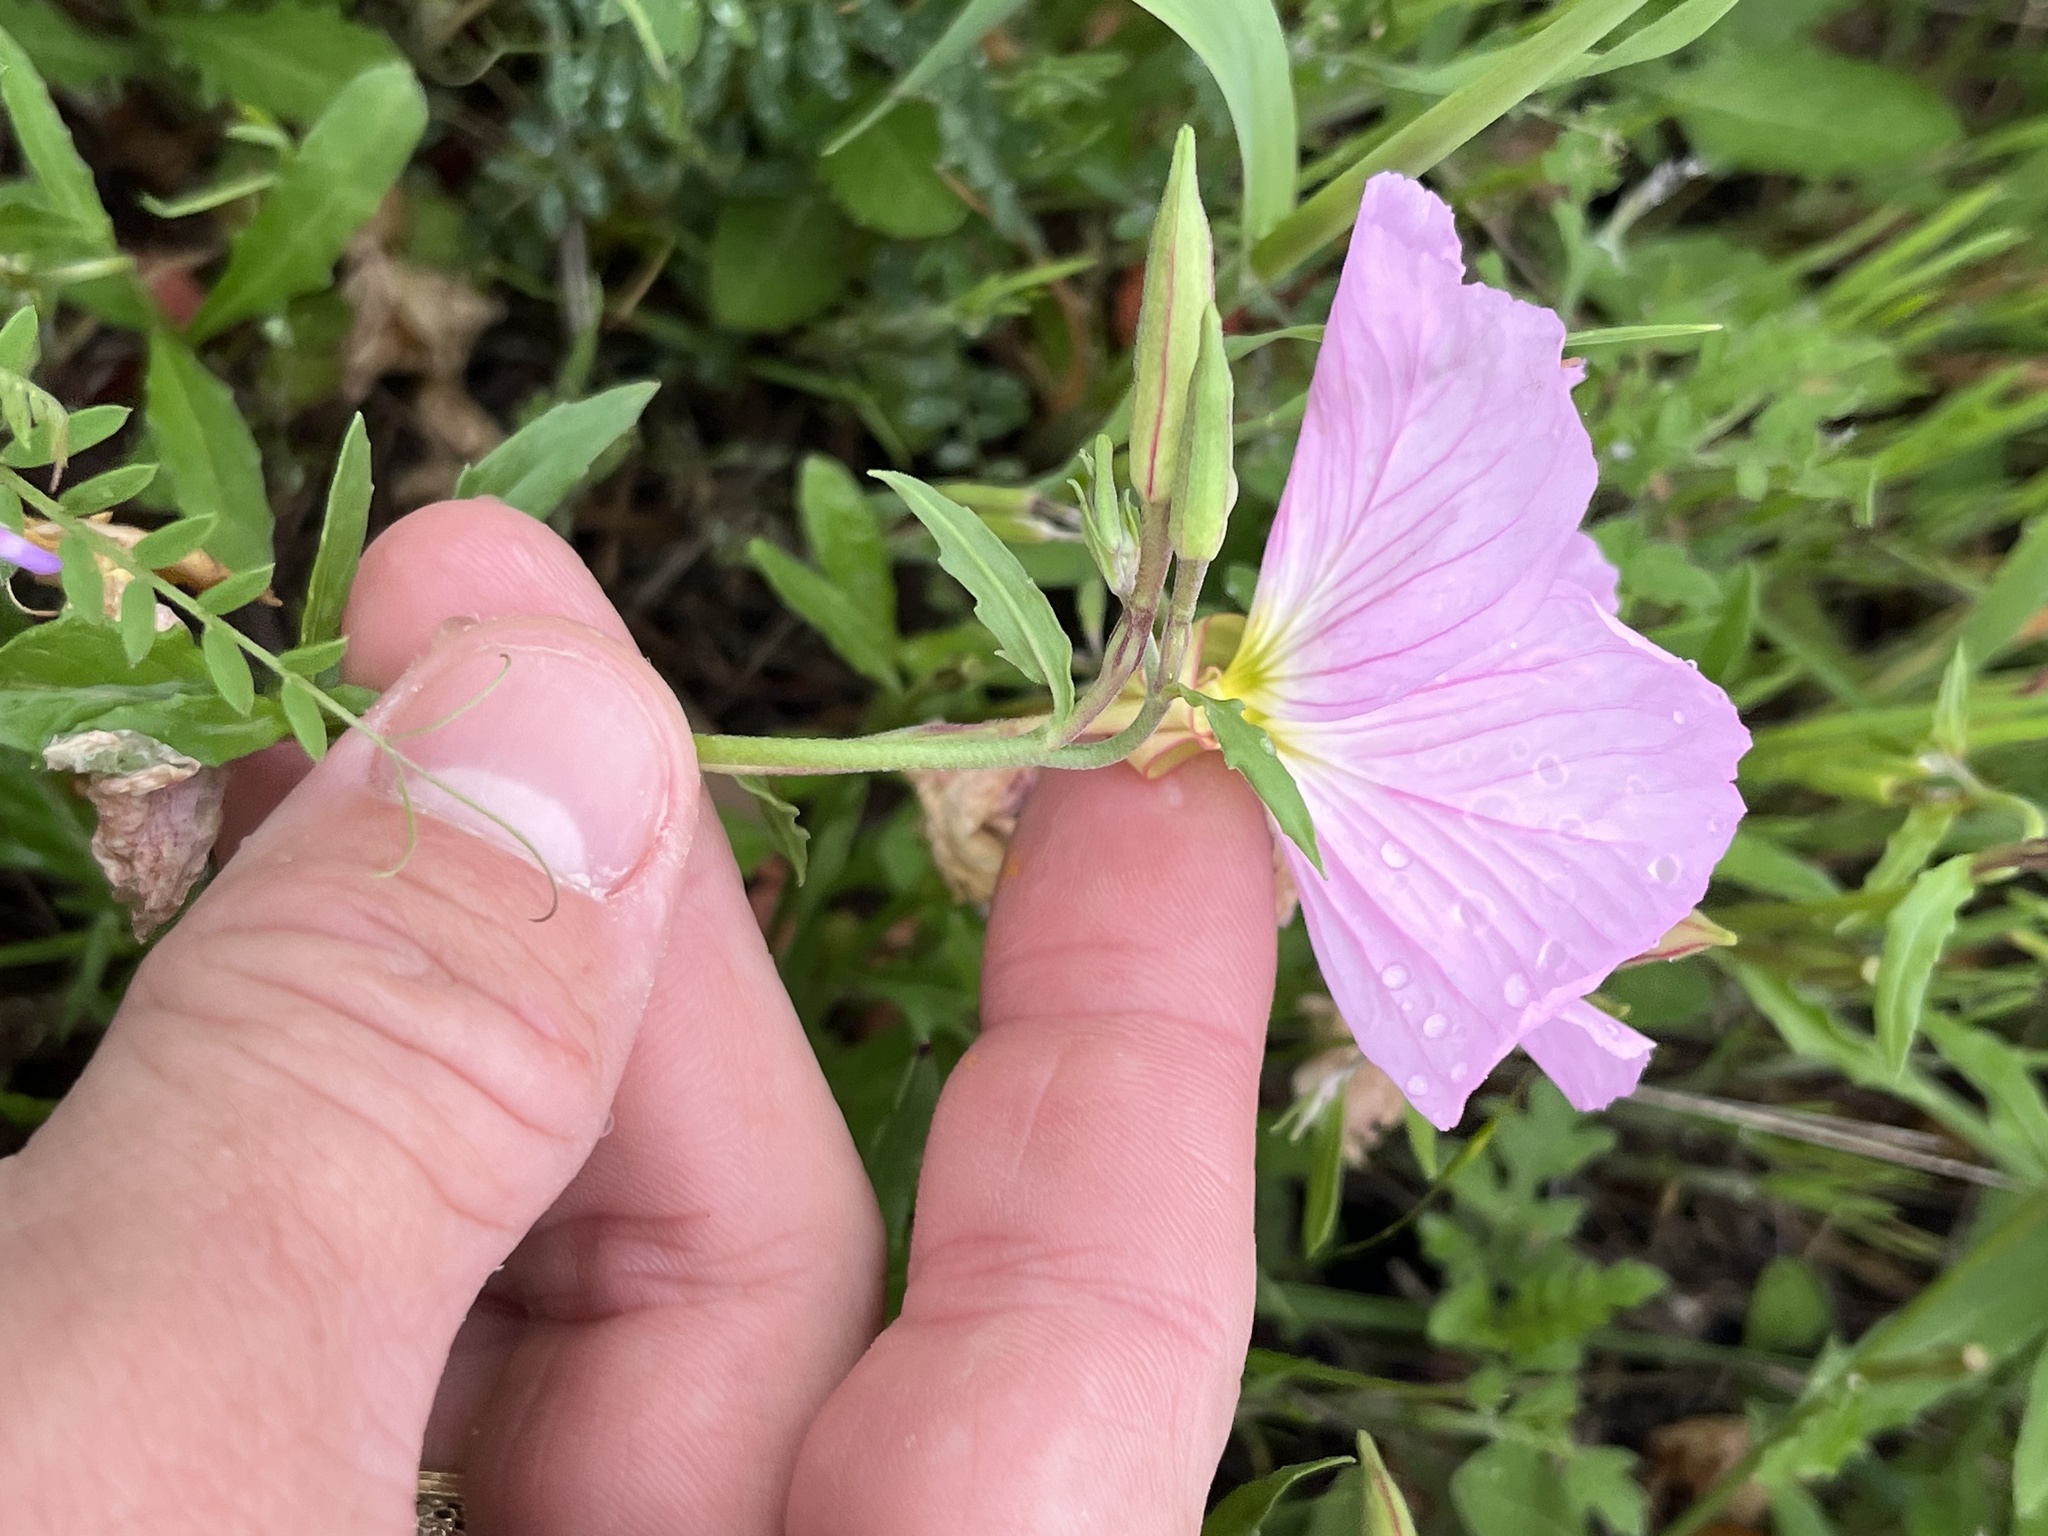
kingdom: Plantae
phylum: Tracheophyta
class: Magnoliopsida
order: Myrtales
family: Onagraceae
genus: Oenothera
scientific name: Oenothera speciosa
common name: White evening-primrose
